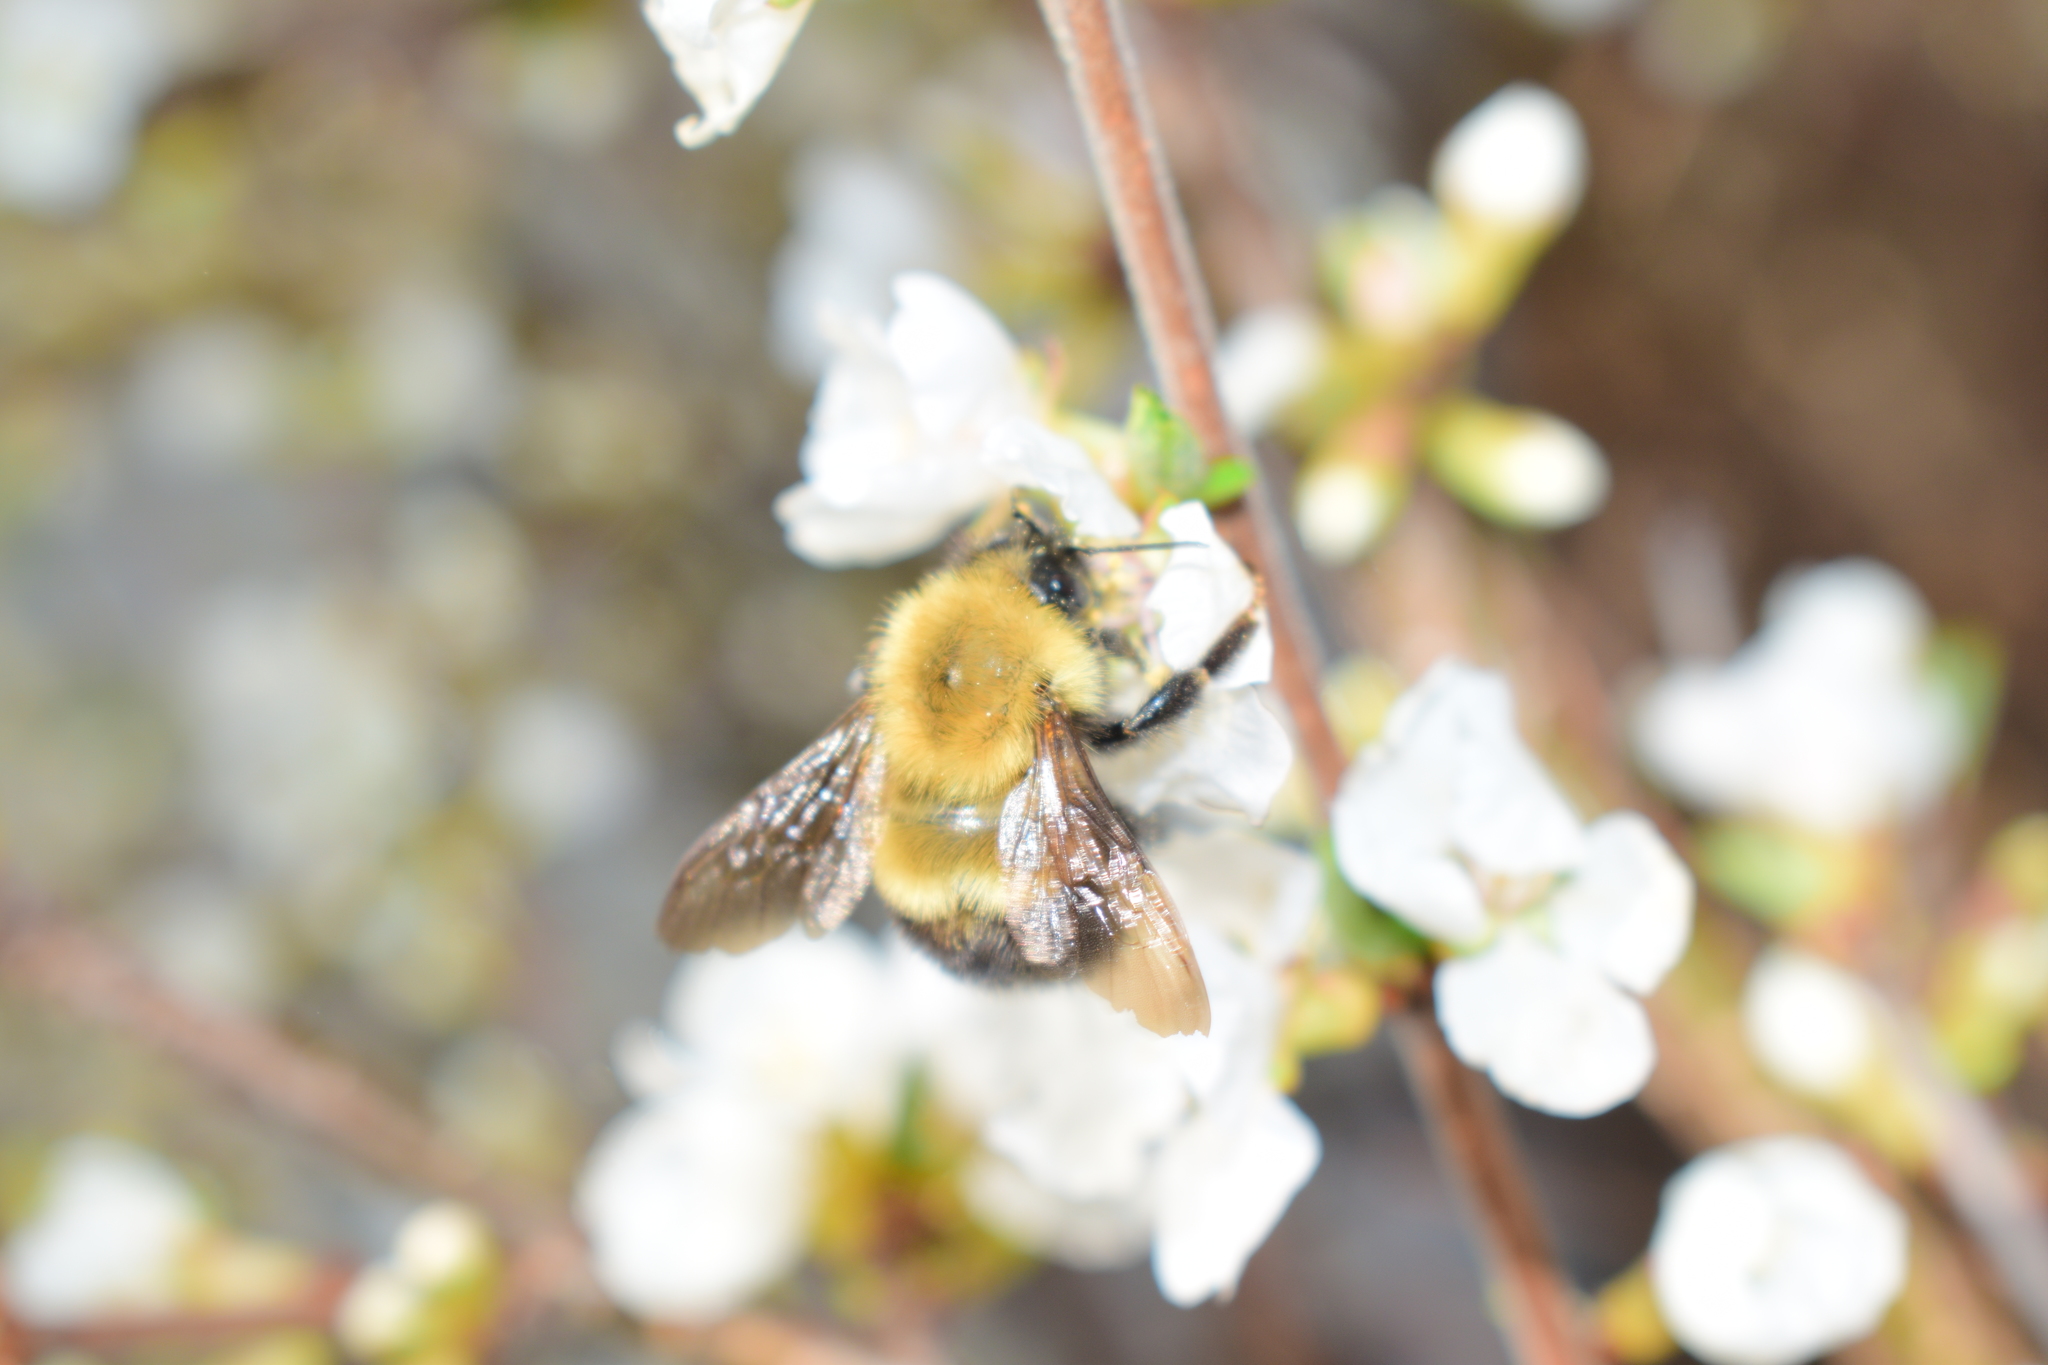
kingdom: Animalia
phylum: Arthropoda
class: Insecta
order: Hymenoptera
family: Apidae
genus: Bombus
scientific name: Bombus perplexus
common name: Confusing bumble bee
